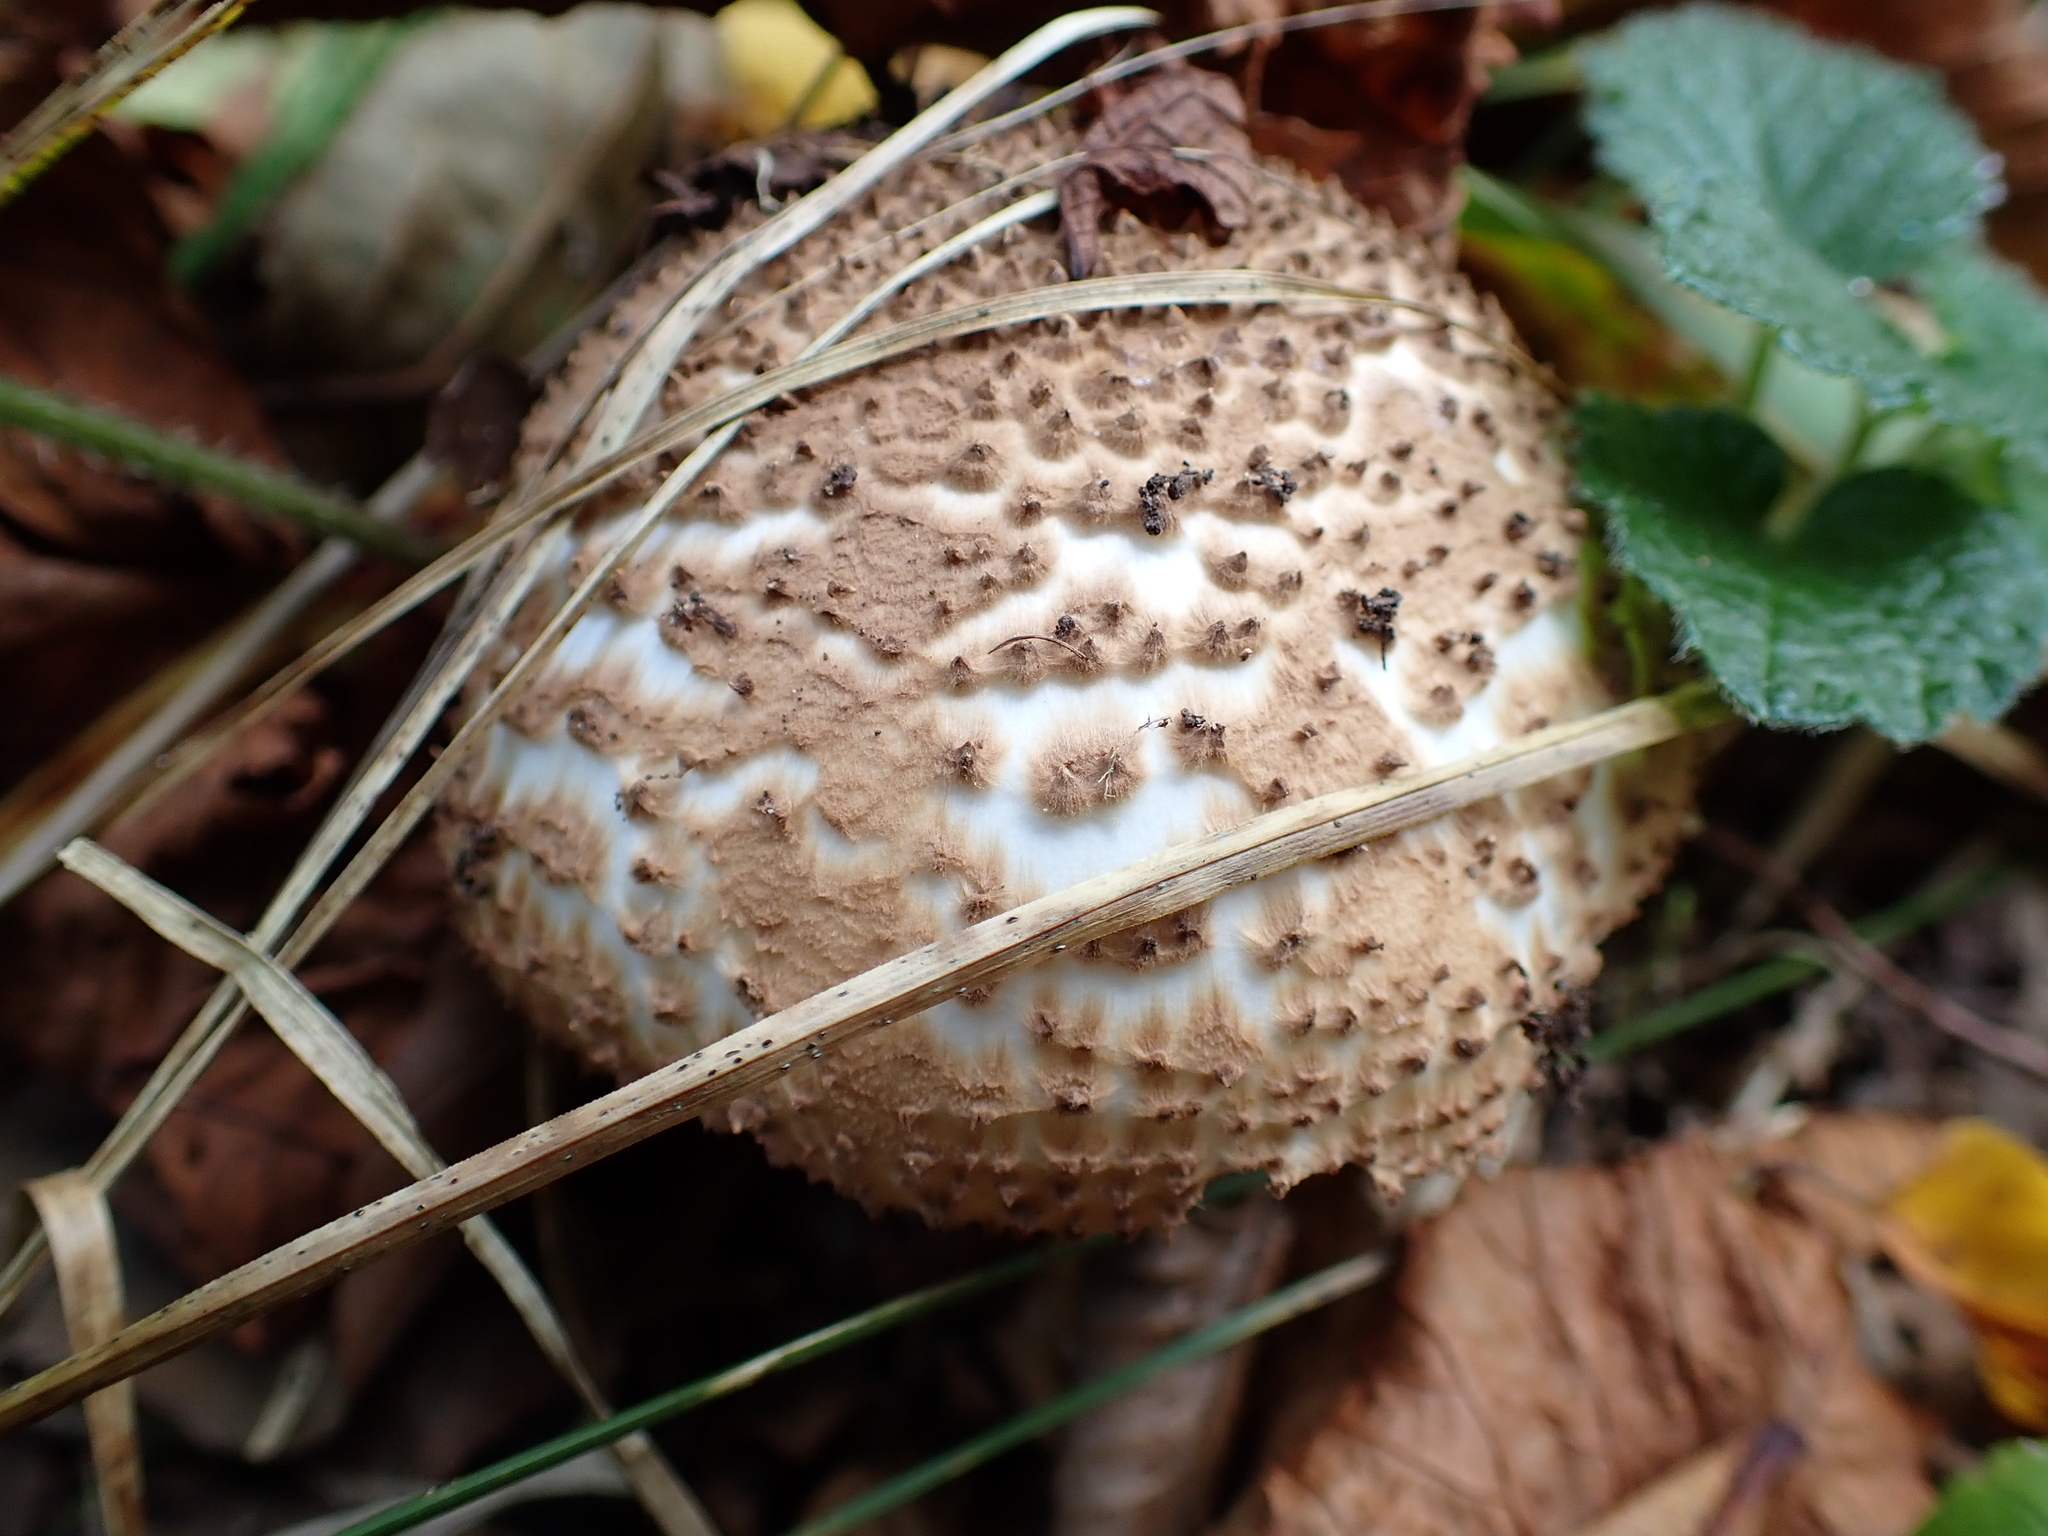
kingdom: Fungi
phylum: Basidiomycota
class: Agaricomycetes
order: Agaricales
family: Agaricaceae
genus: Echinoderma
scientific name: Echinoderma asperum
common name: Freckled dapperling
